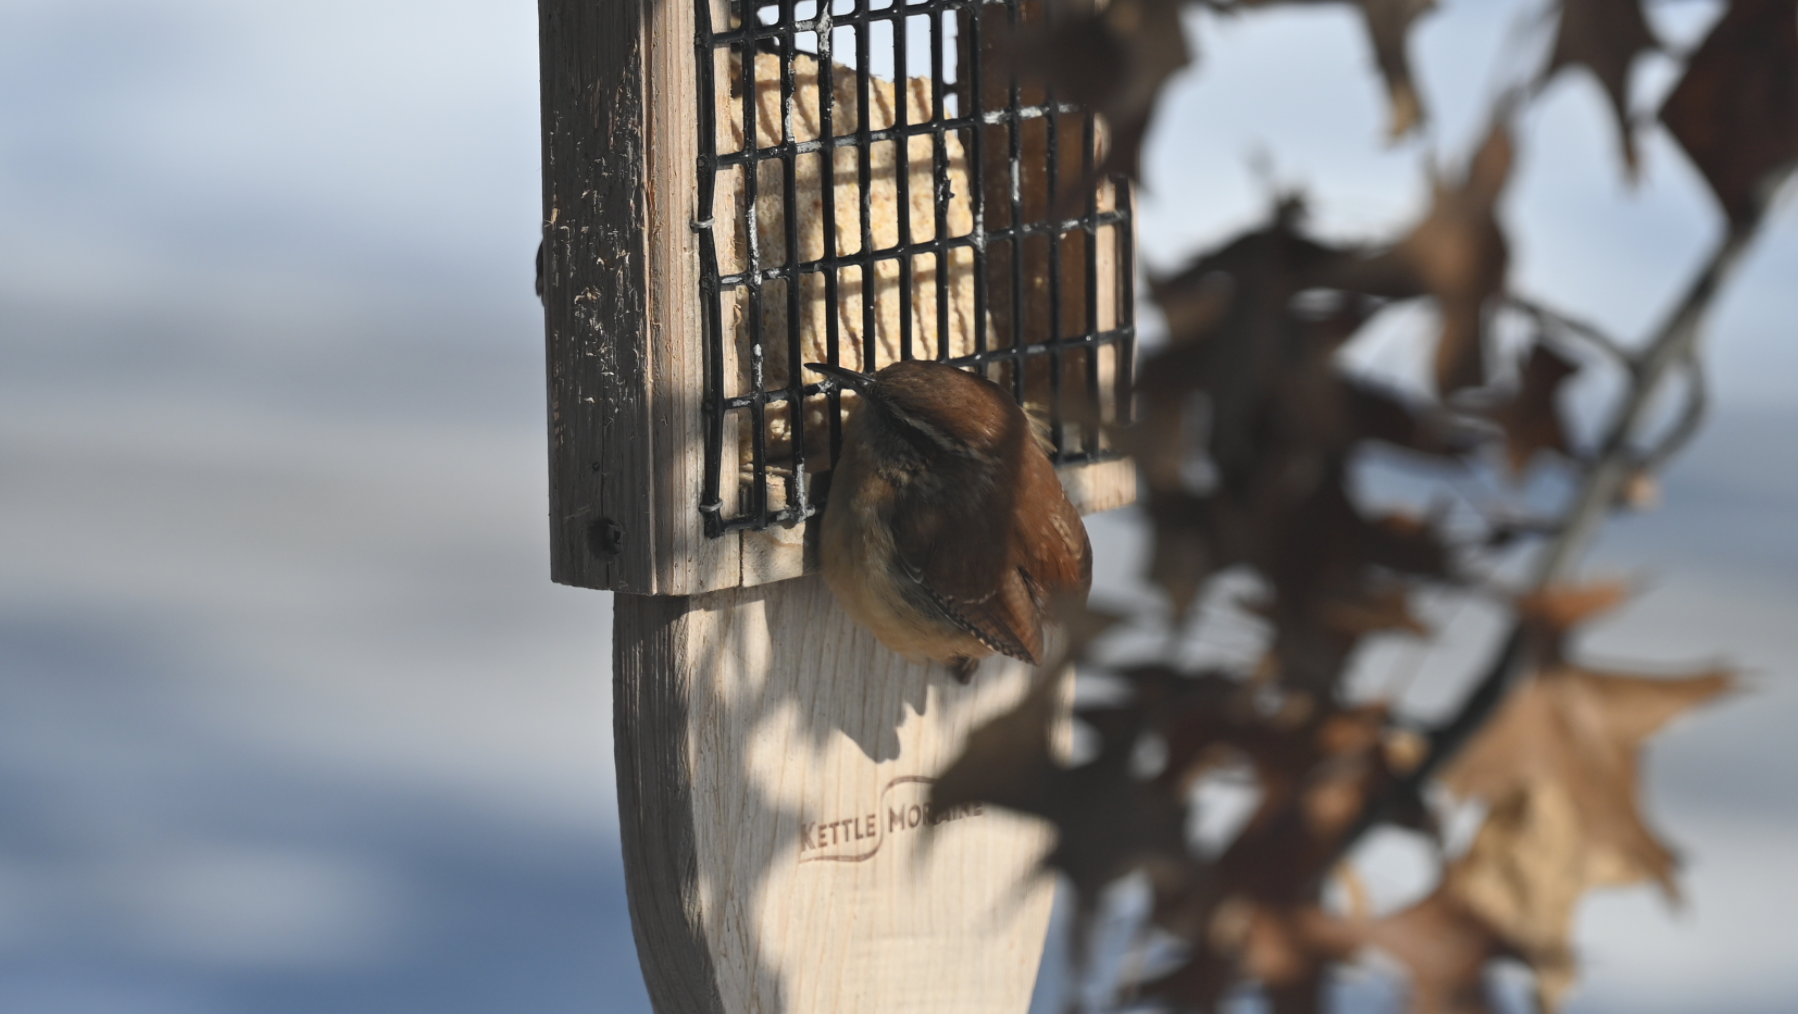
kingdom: Animalia
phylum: Chordata
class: Aves
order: Passeriformes
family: Troglodytidae
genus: Thryothorus
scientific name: Thryothorus ludovicianus
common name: Carolina wren
